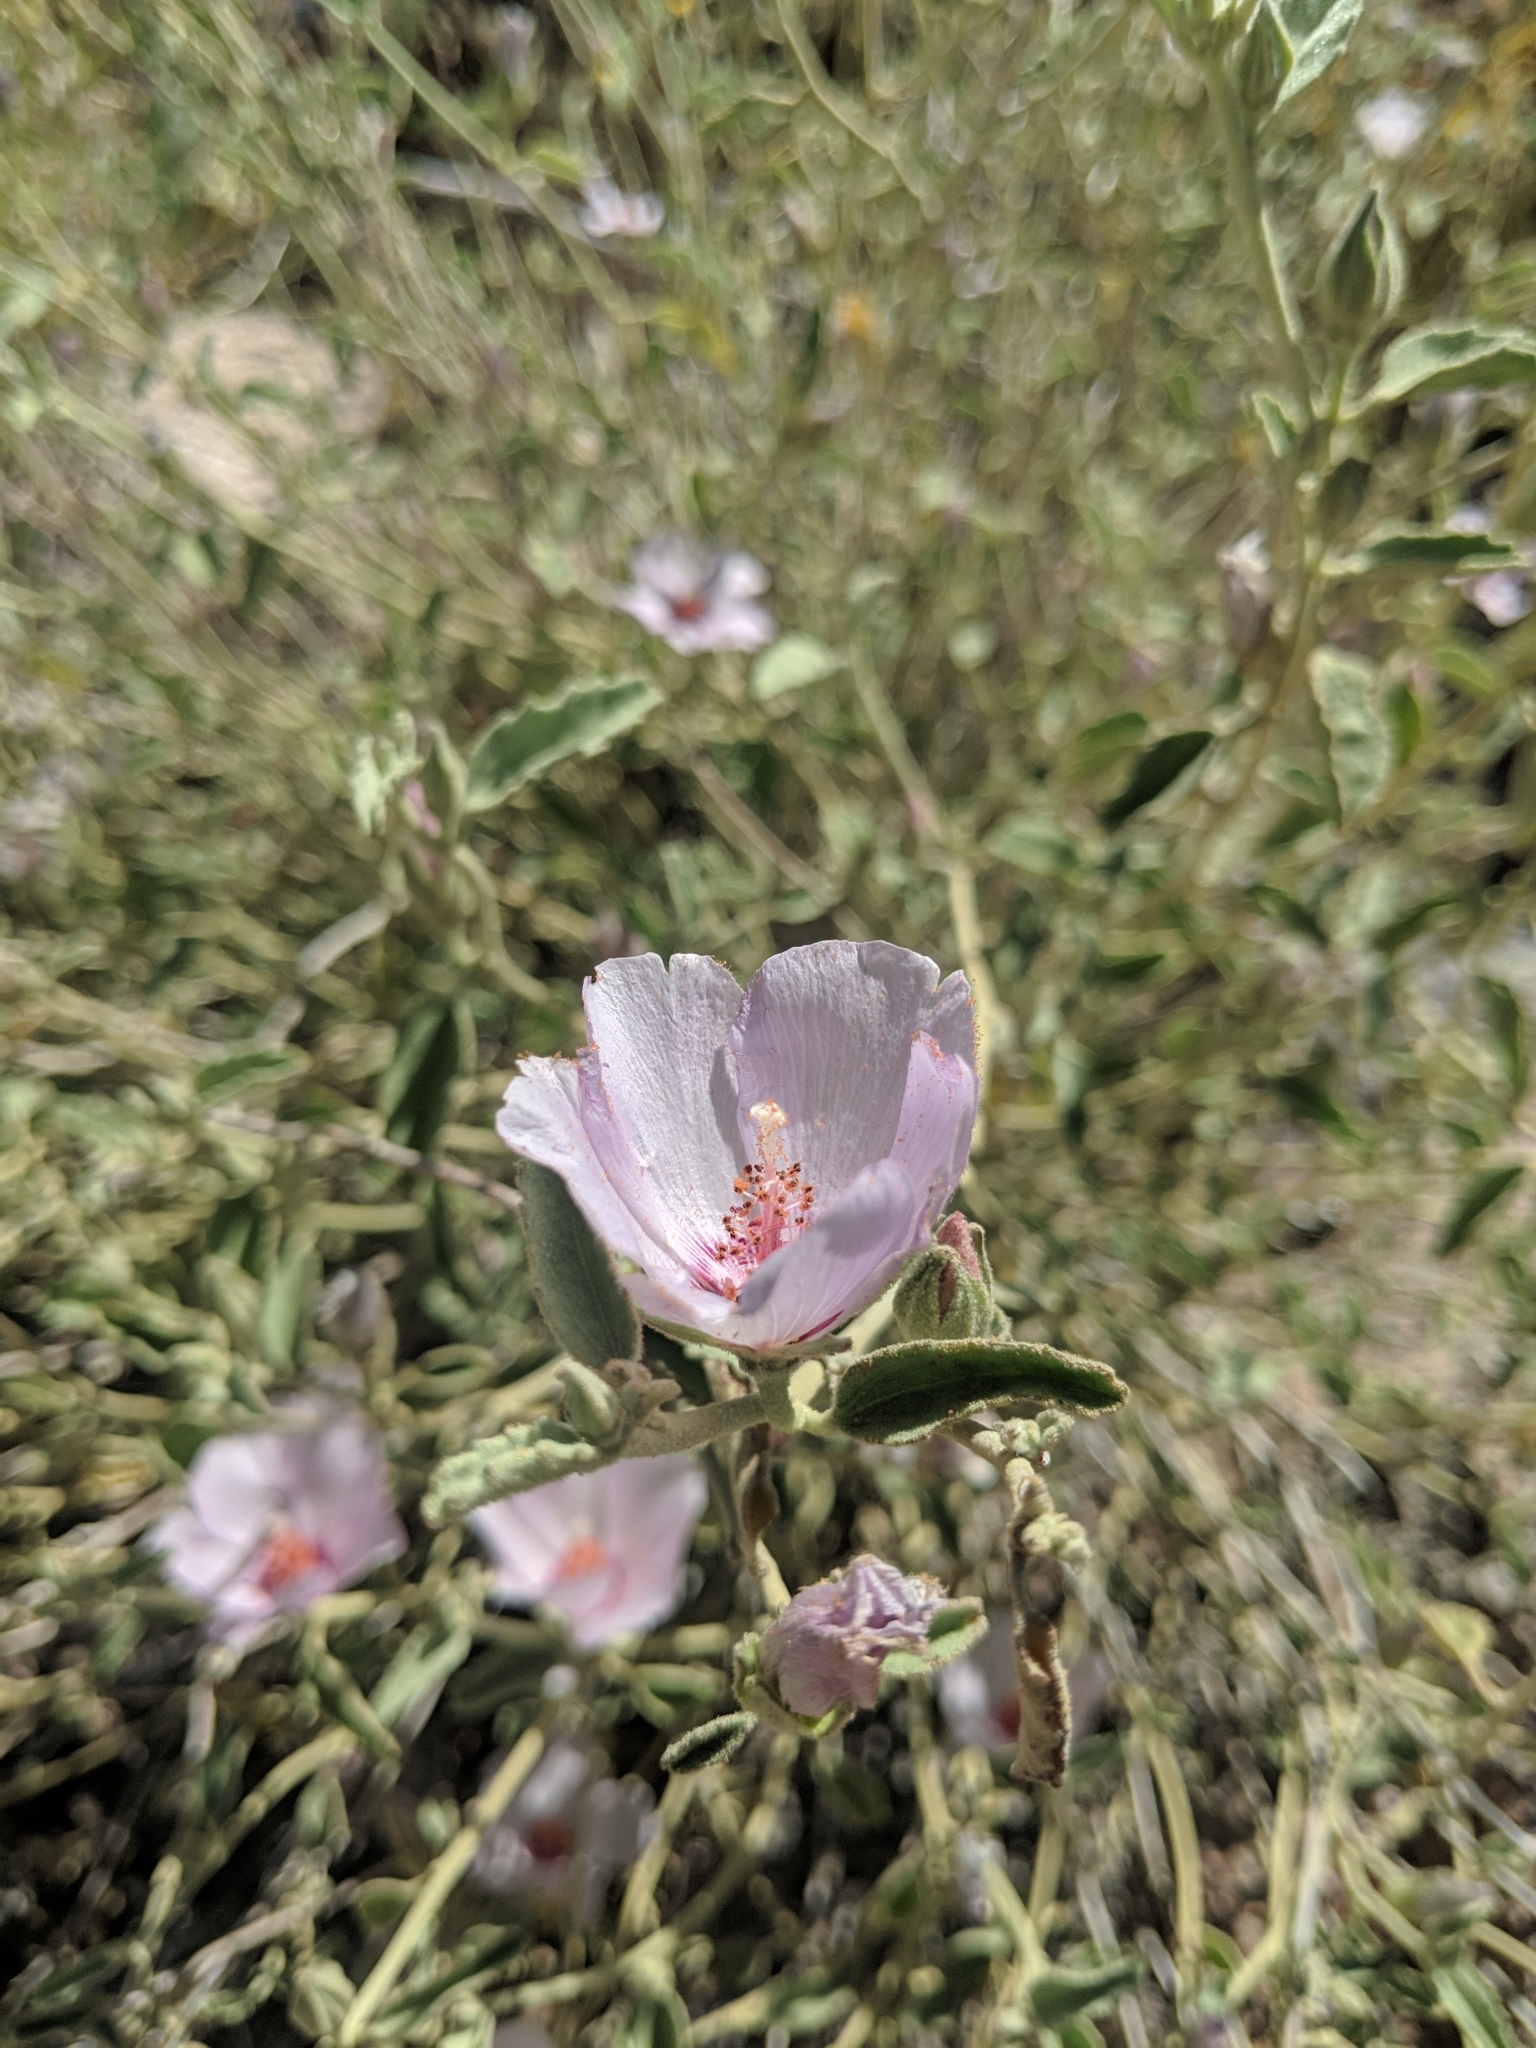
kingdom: Plantae
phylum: Tracheophyta
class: Magnoliopsida
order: Malvales
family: Malvaceae
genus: Hibiscus
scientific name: Hibiscus denudatus
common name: Paleface
